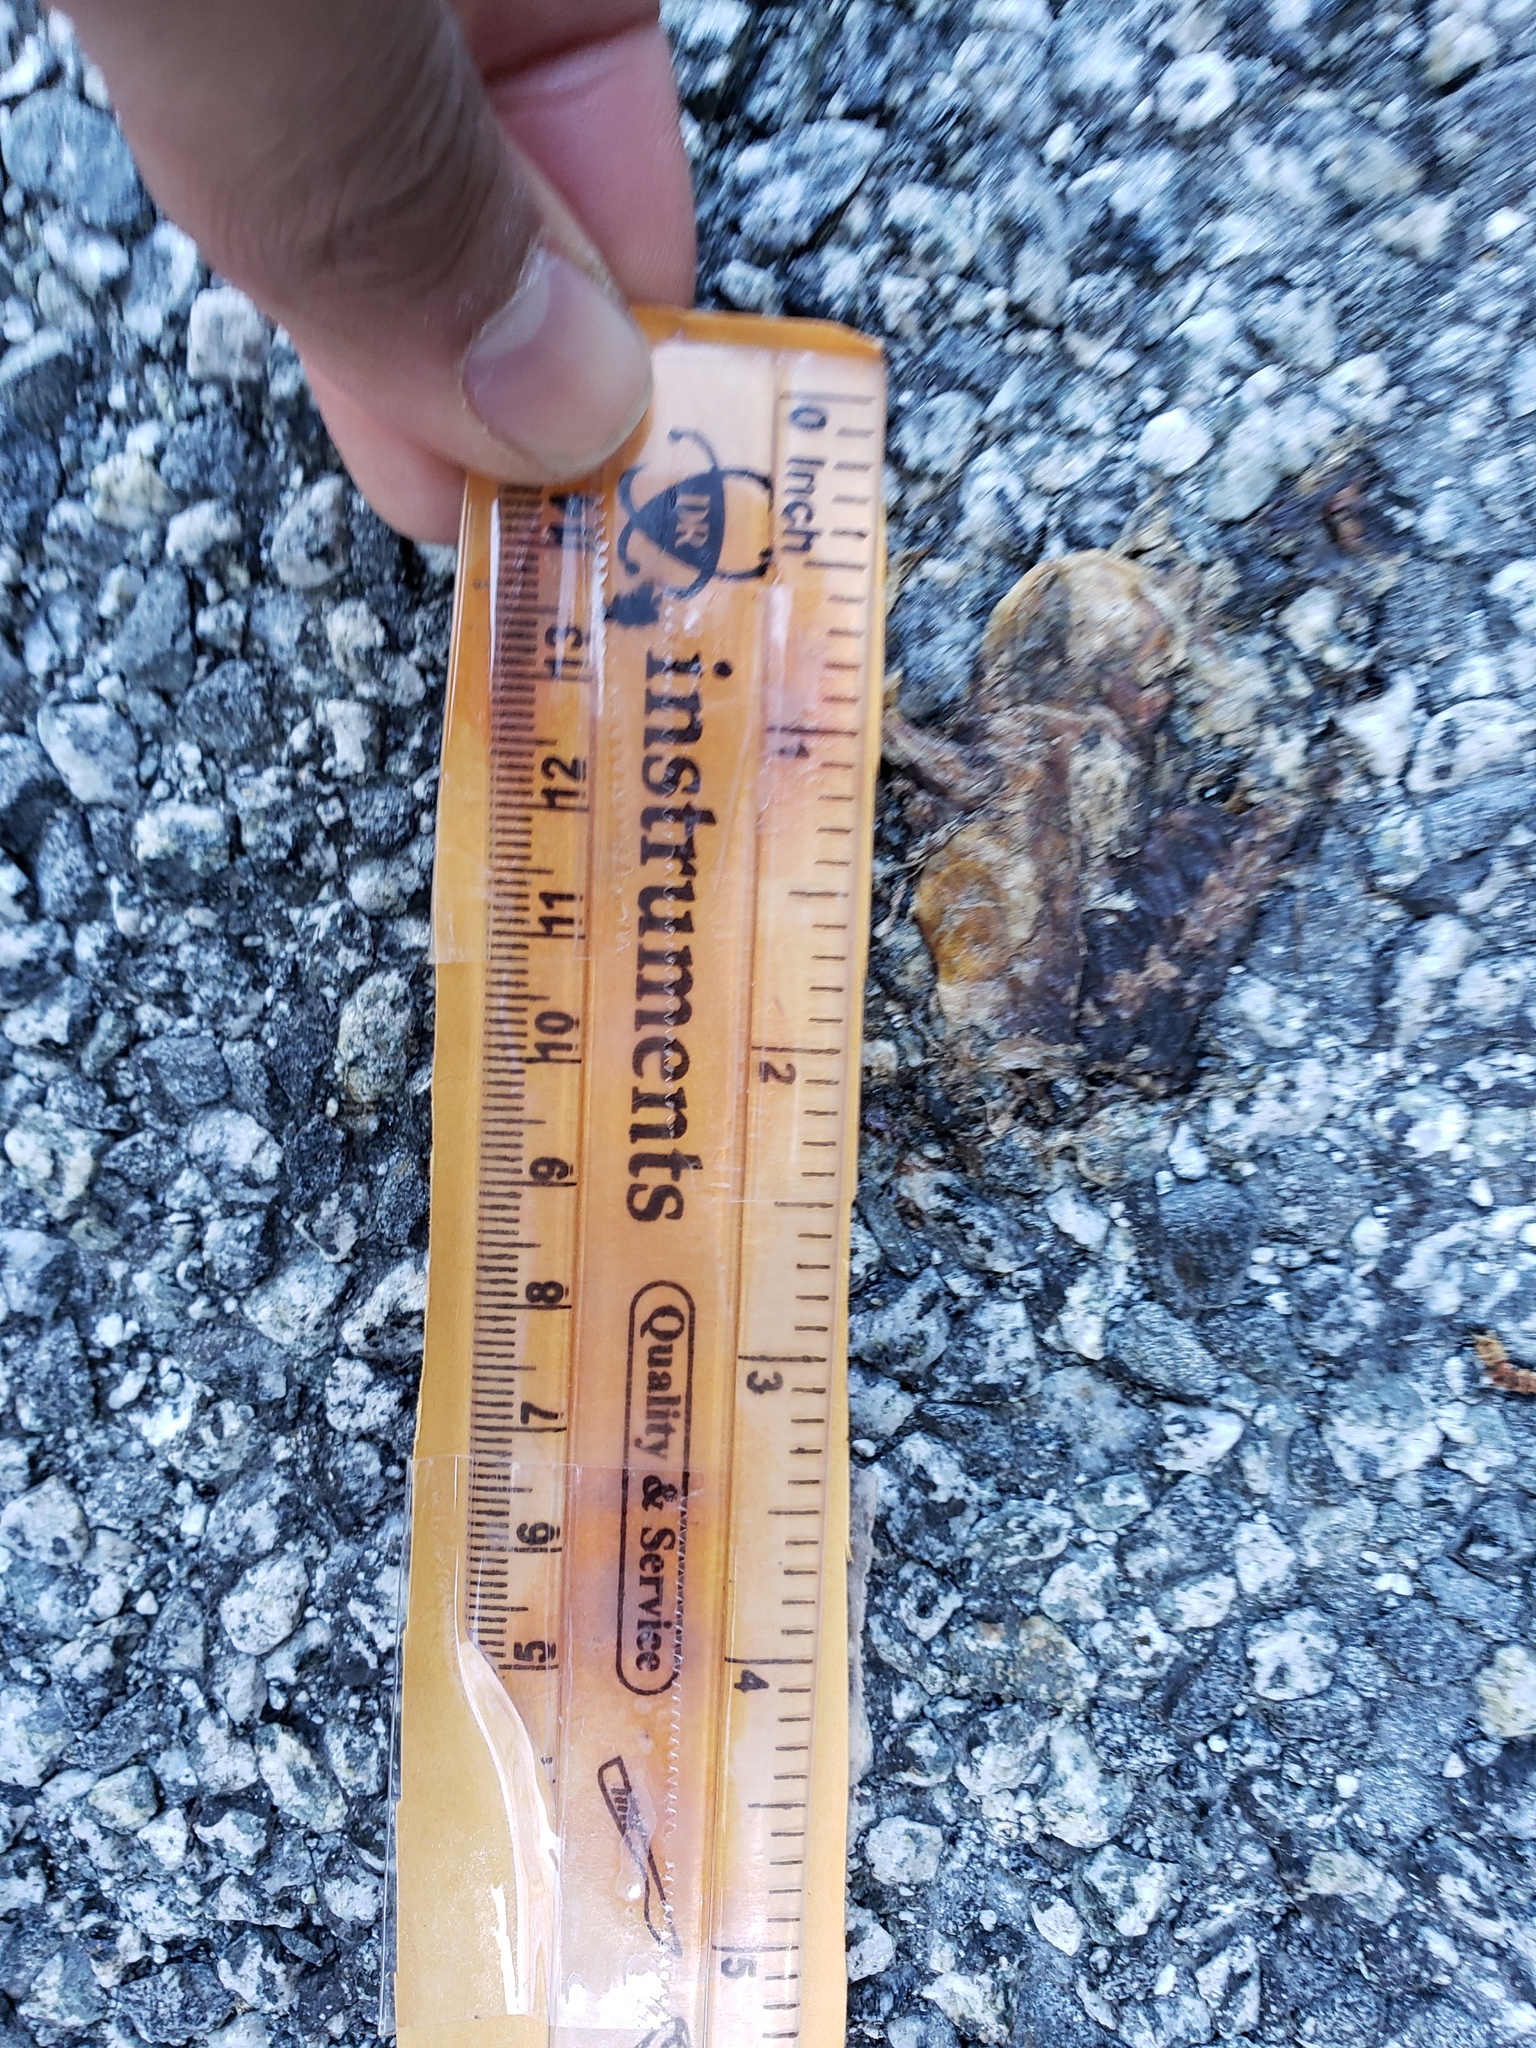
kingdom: Animalia
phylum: Chordata
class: Amphibia
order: Caudata
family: Salamandridae
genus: Taricha
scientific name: Taricha
